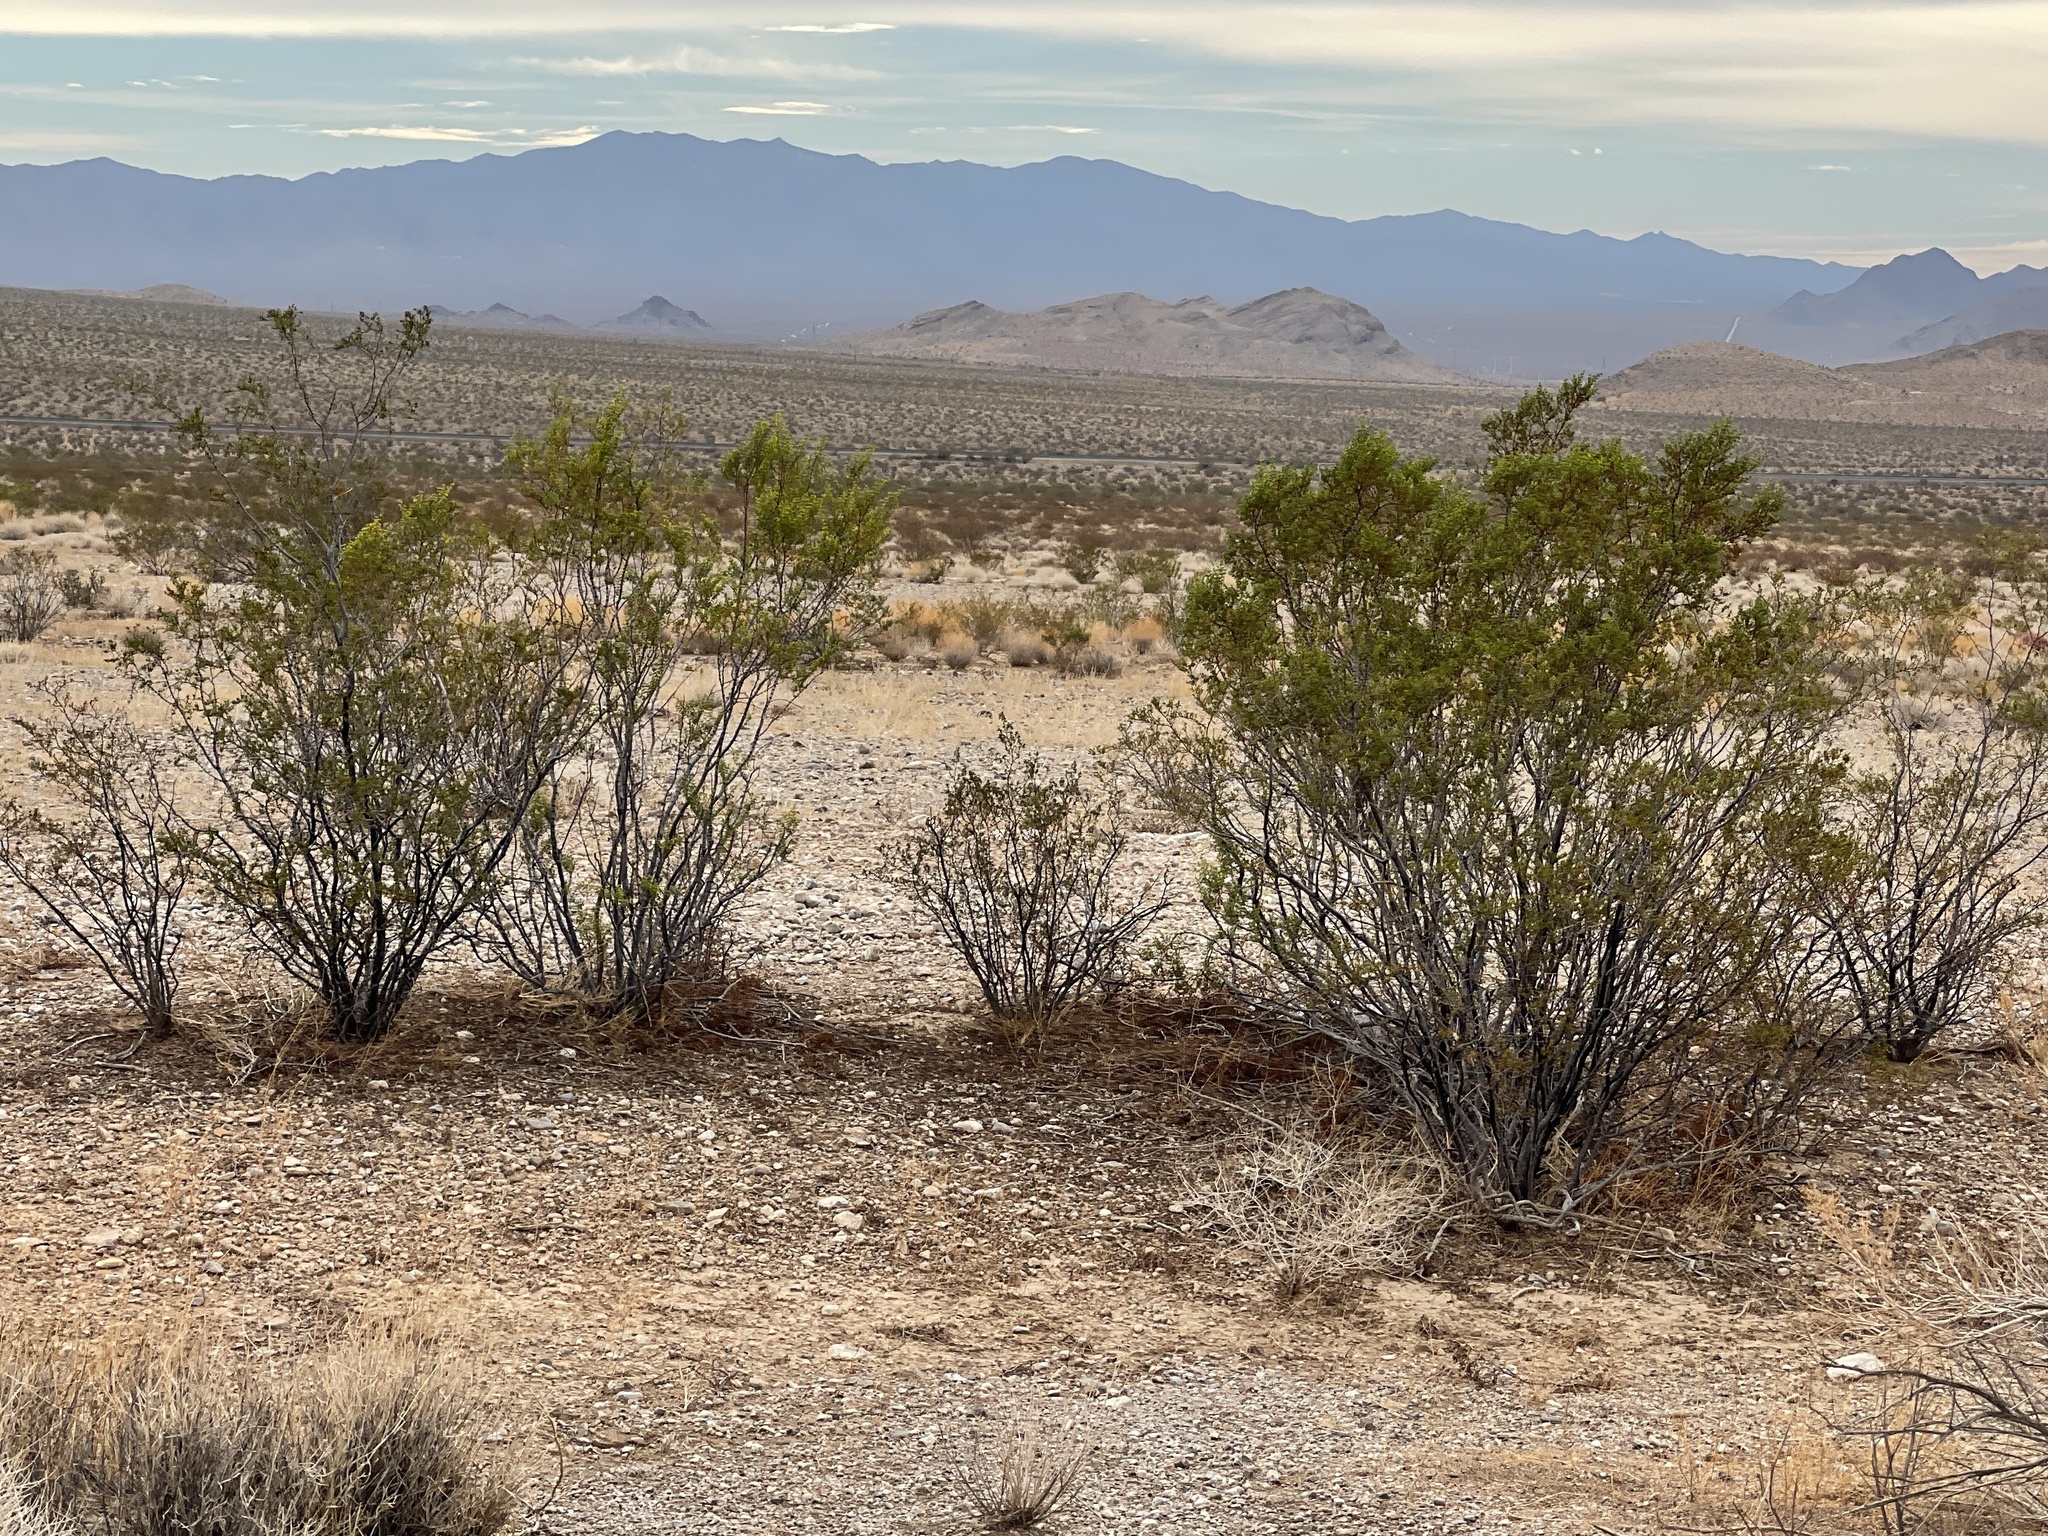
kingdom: Plantae
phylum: Tracheophyta
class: Magnoliopsida
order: Zygophyllales
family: Zygophyllaceae
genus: Larrea
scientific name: Larrea tridentata
